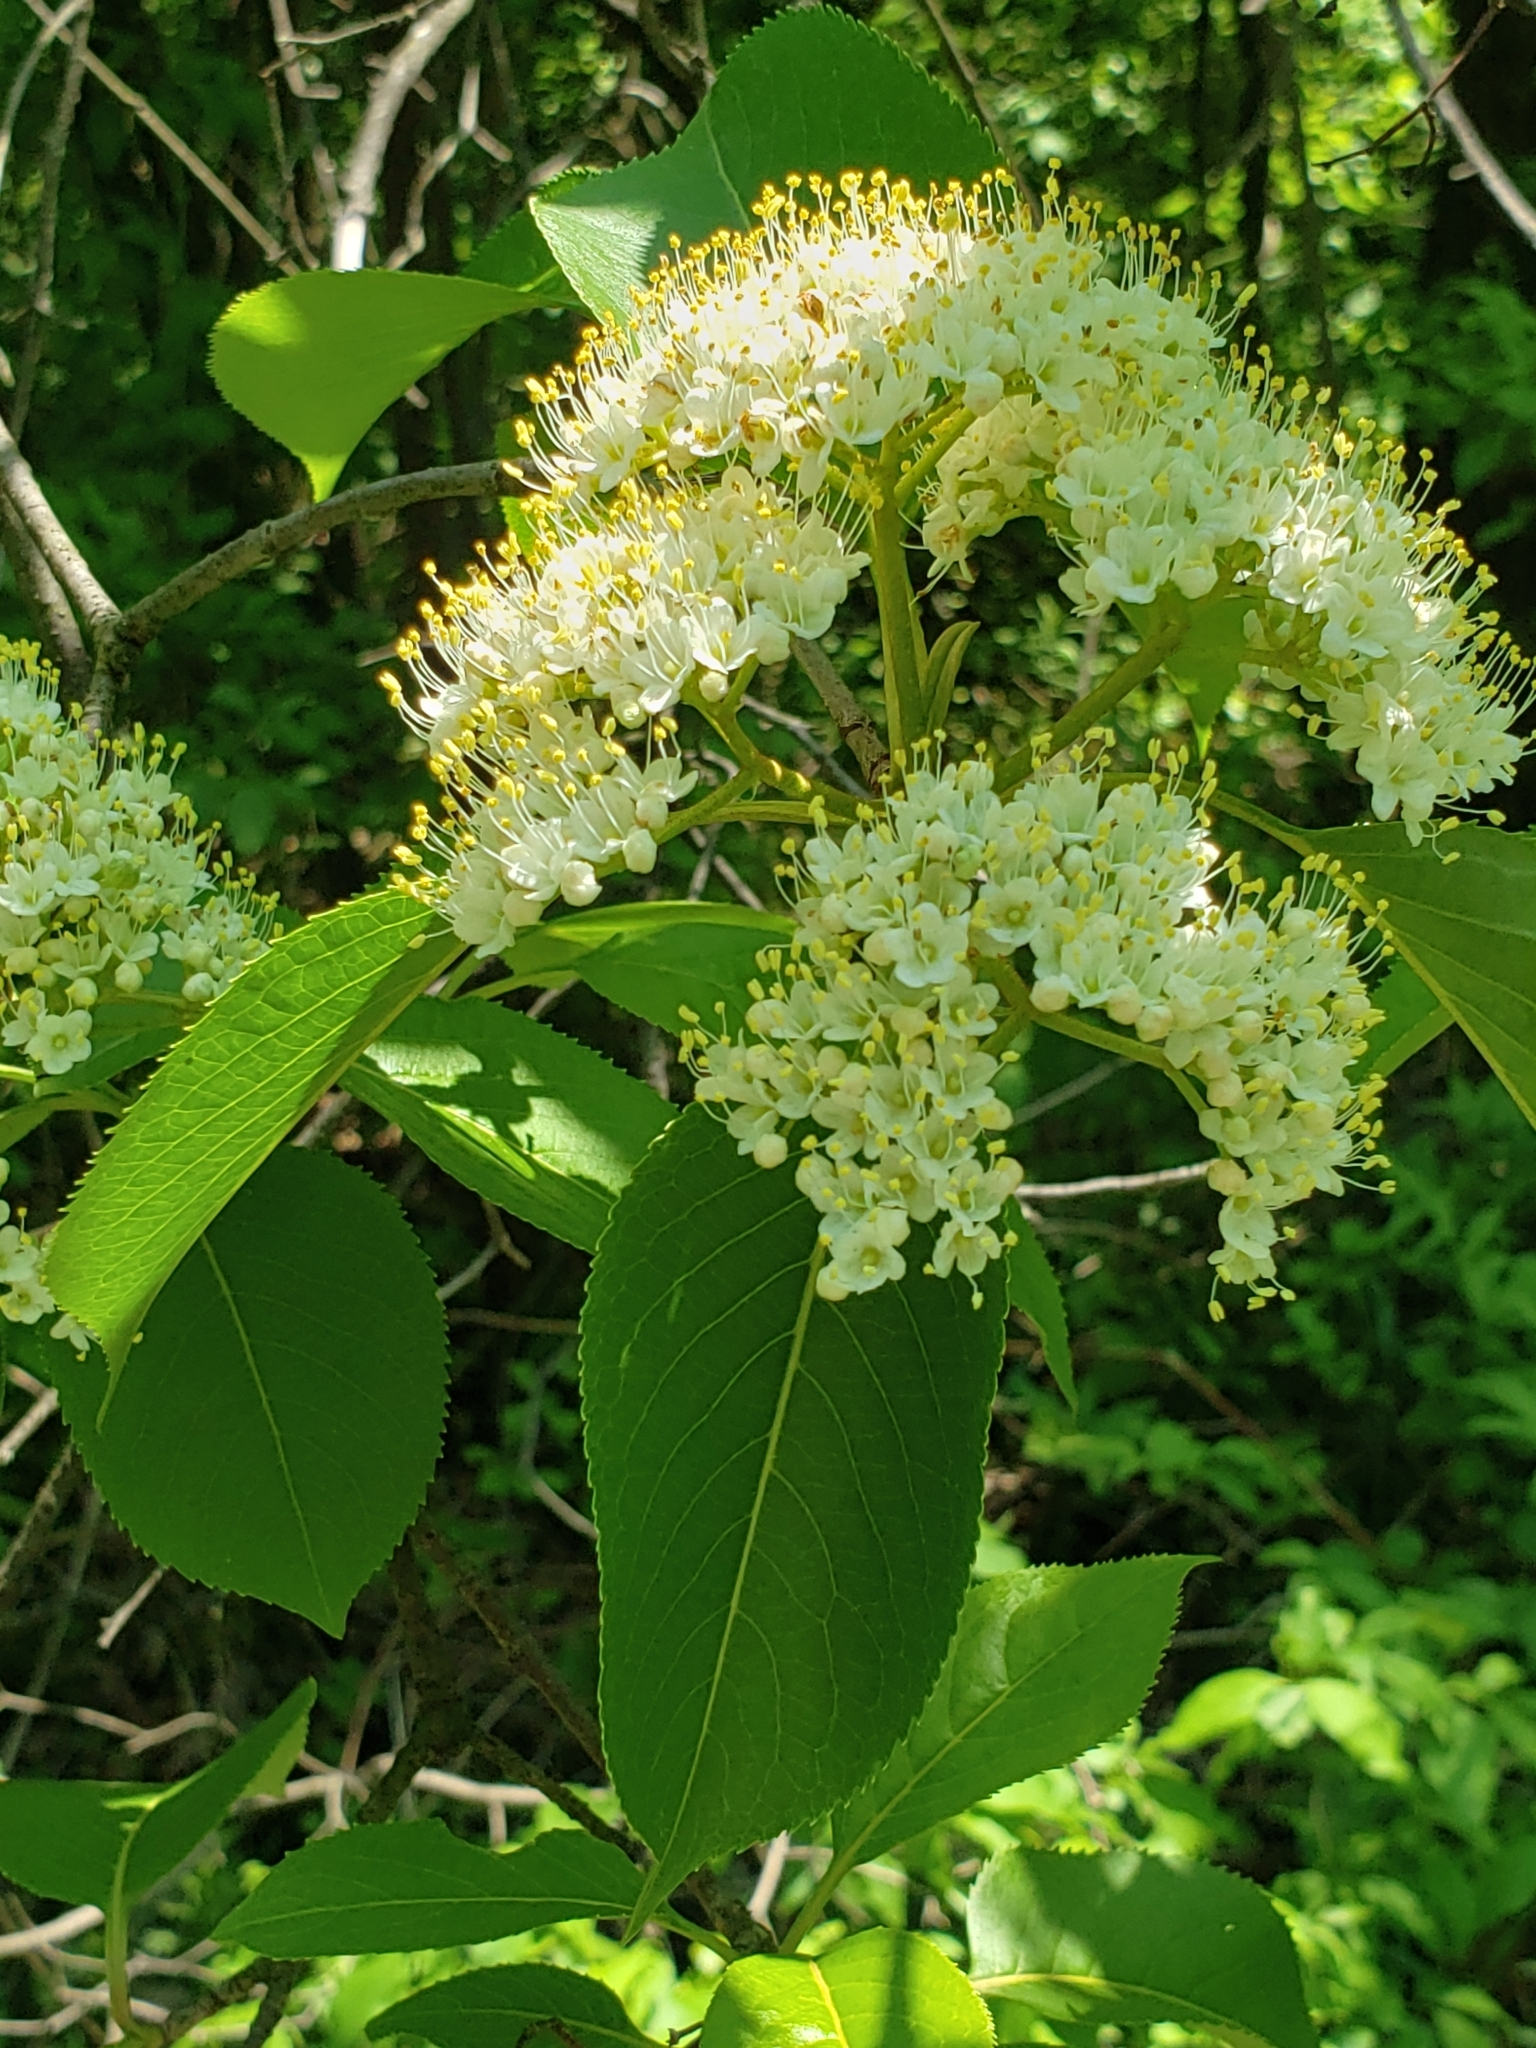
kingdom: Plantae
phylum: Tracheophyta
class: Magnoliopsida
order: Dipsacales
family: Viburnaceae
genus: Viburnum
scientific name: Viburnum lentago
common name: Black haw
